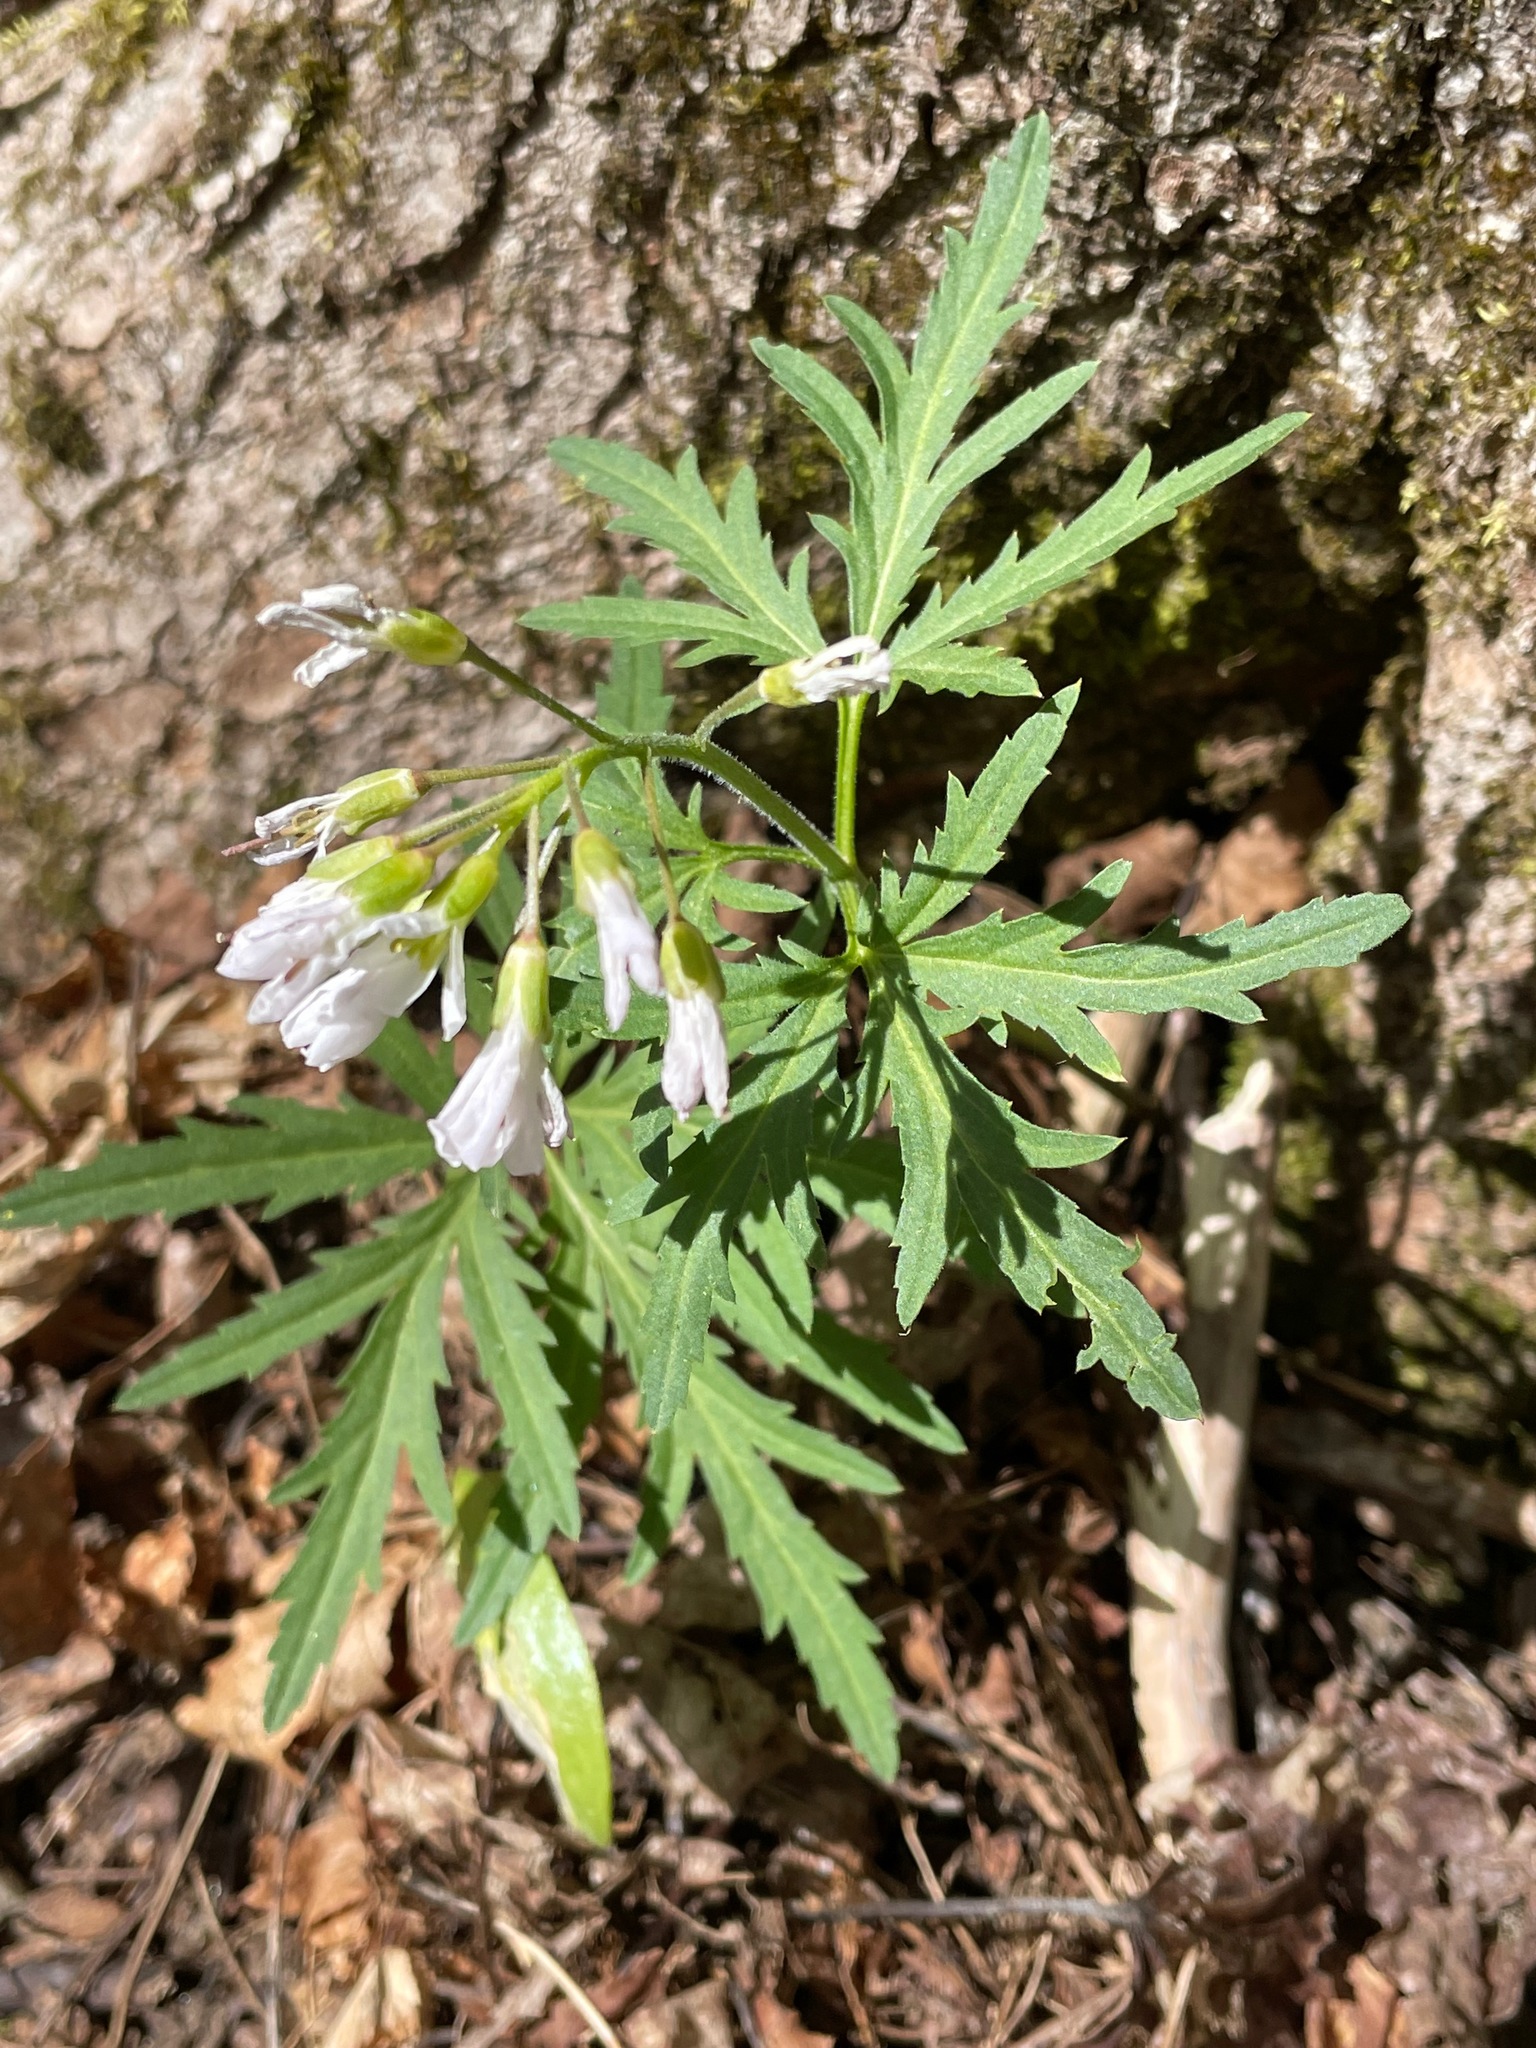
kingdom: Plantae
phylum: Tracheophyta
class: Magnoliopsida
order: Brassicales
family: Brassicaceae
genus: Cardamine
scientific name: Cardamine concatenata
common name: Cut-leaf toothcup
